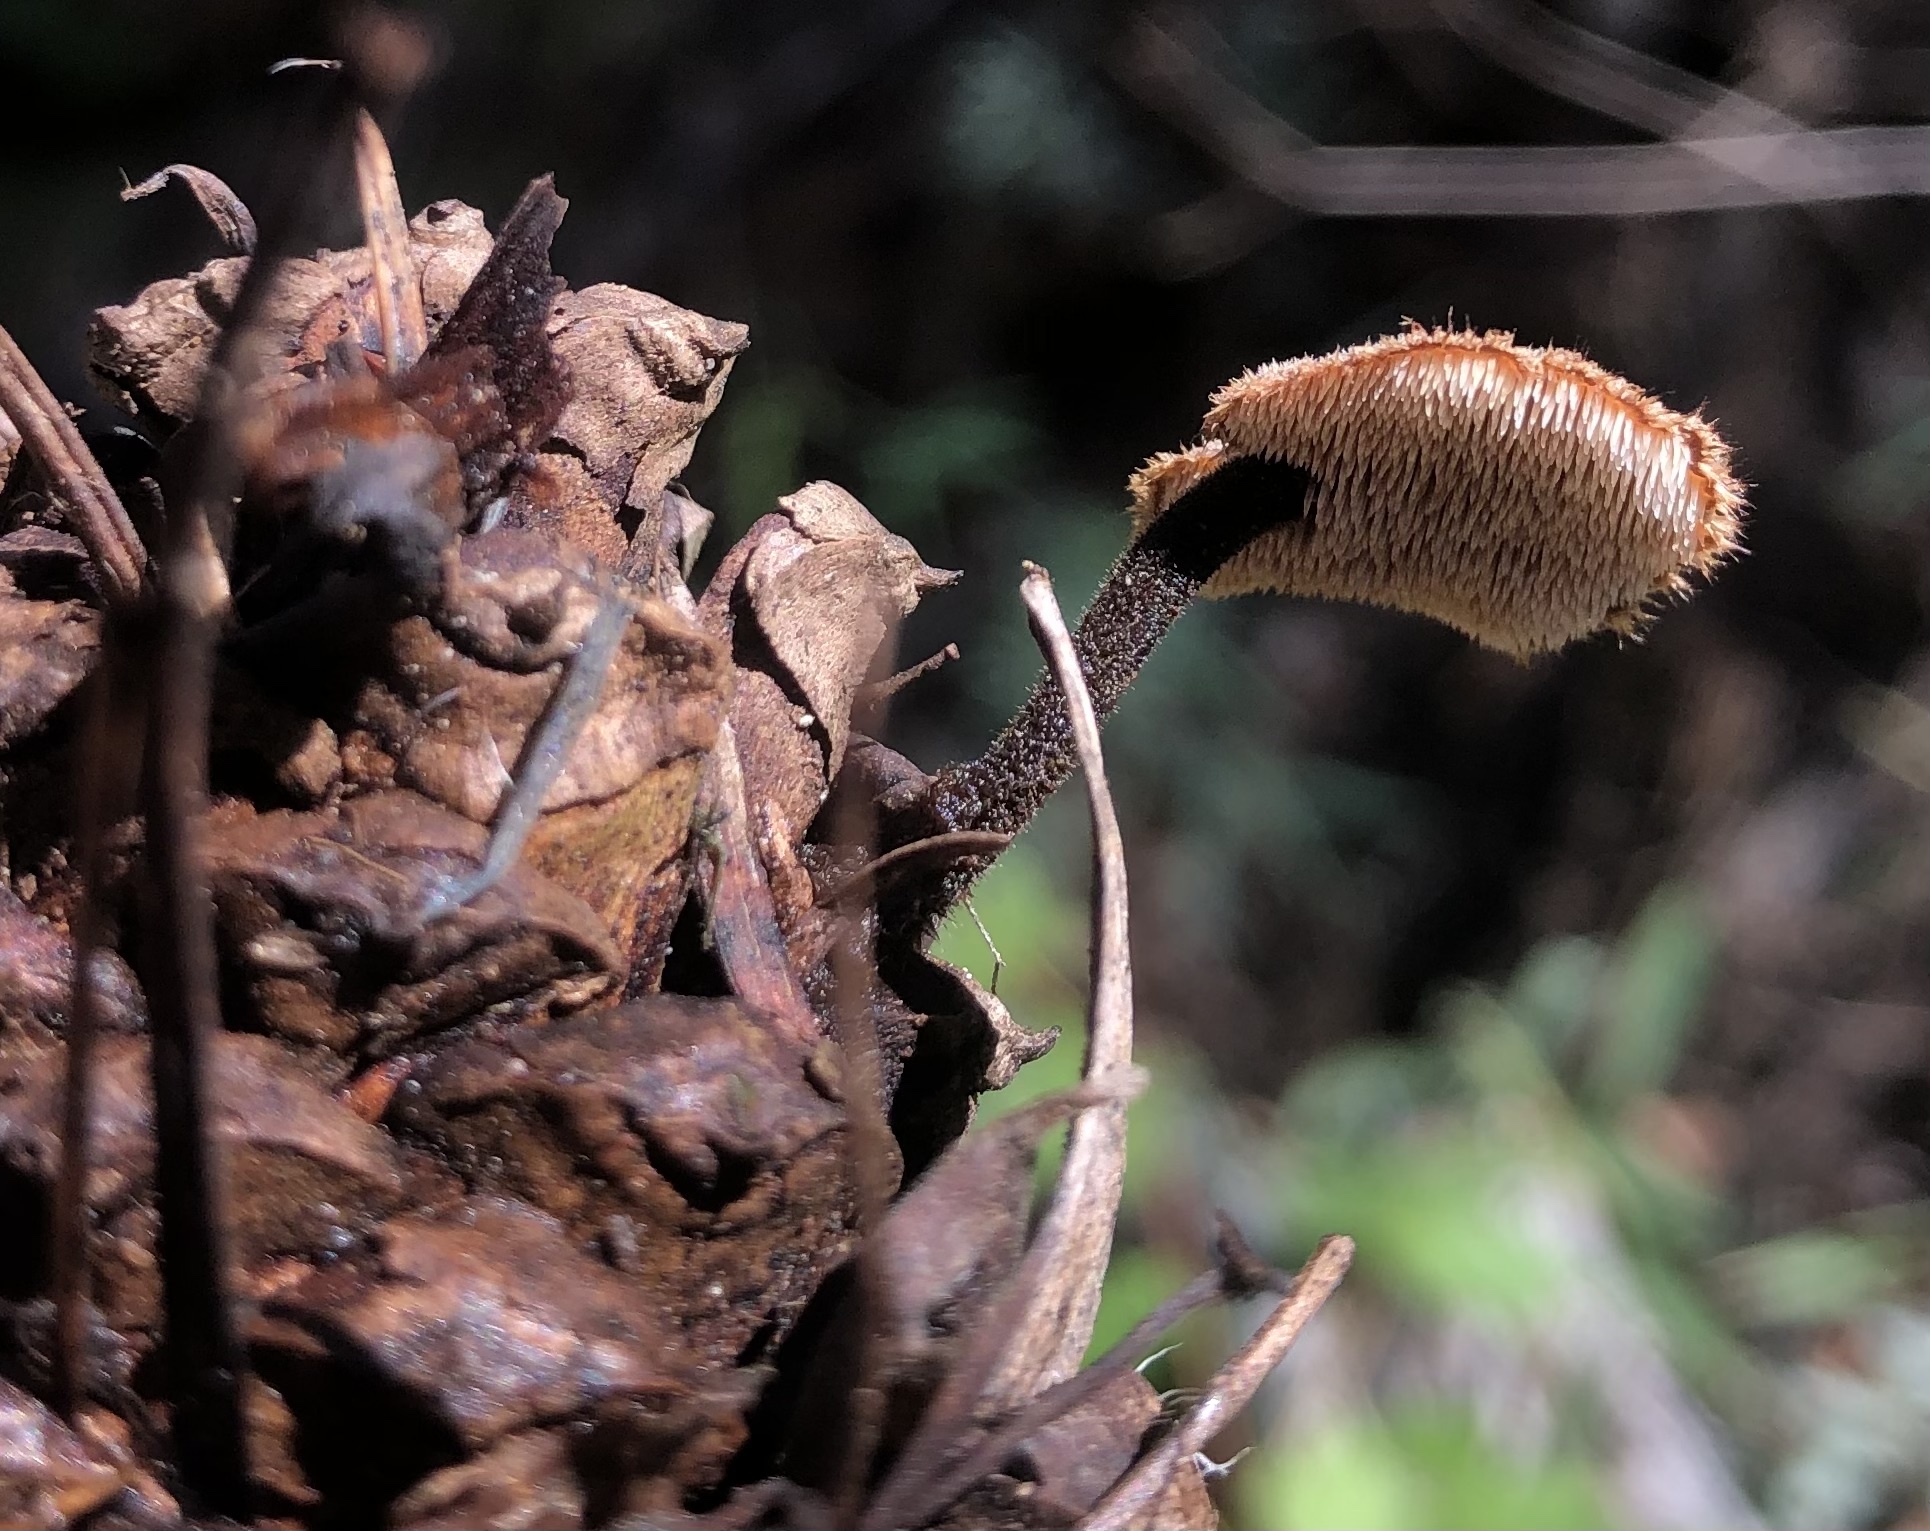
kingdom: Fungi
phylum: Basidiomycota
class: Agaricomycetes
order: Russulales
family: Auriscalpiaceae
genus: Auriscalpium
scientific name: Auriscalpium vulgare
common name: Earpick fungus
